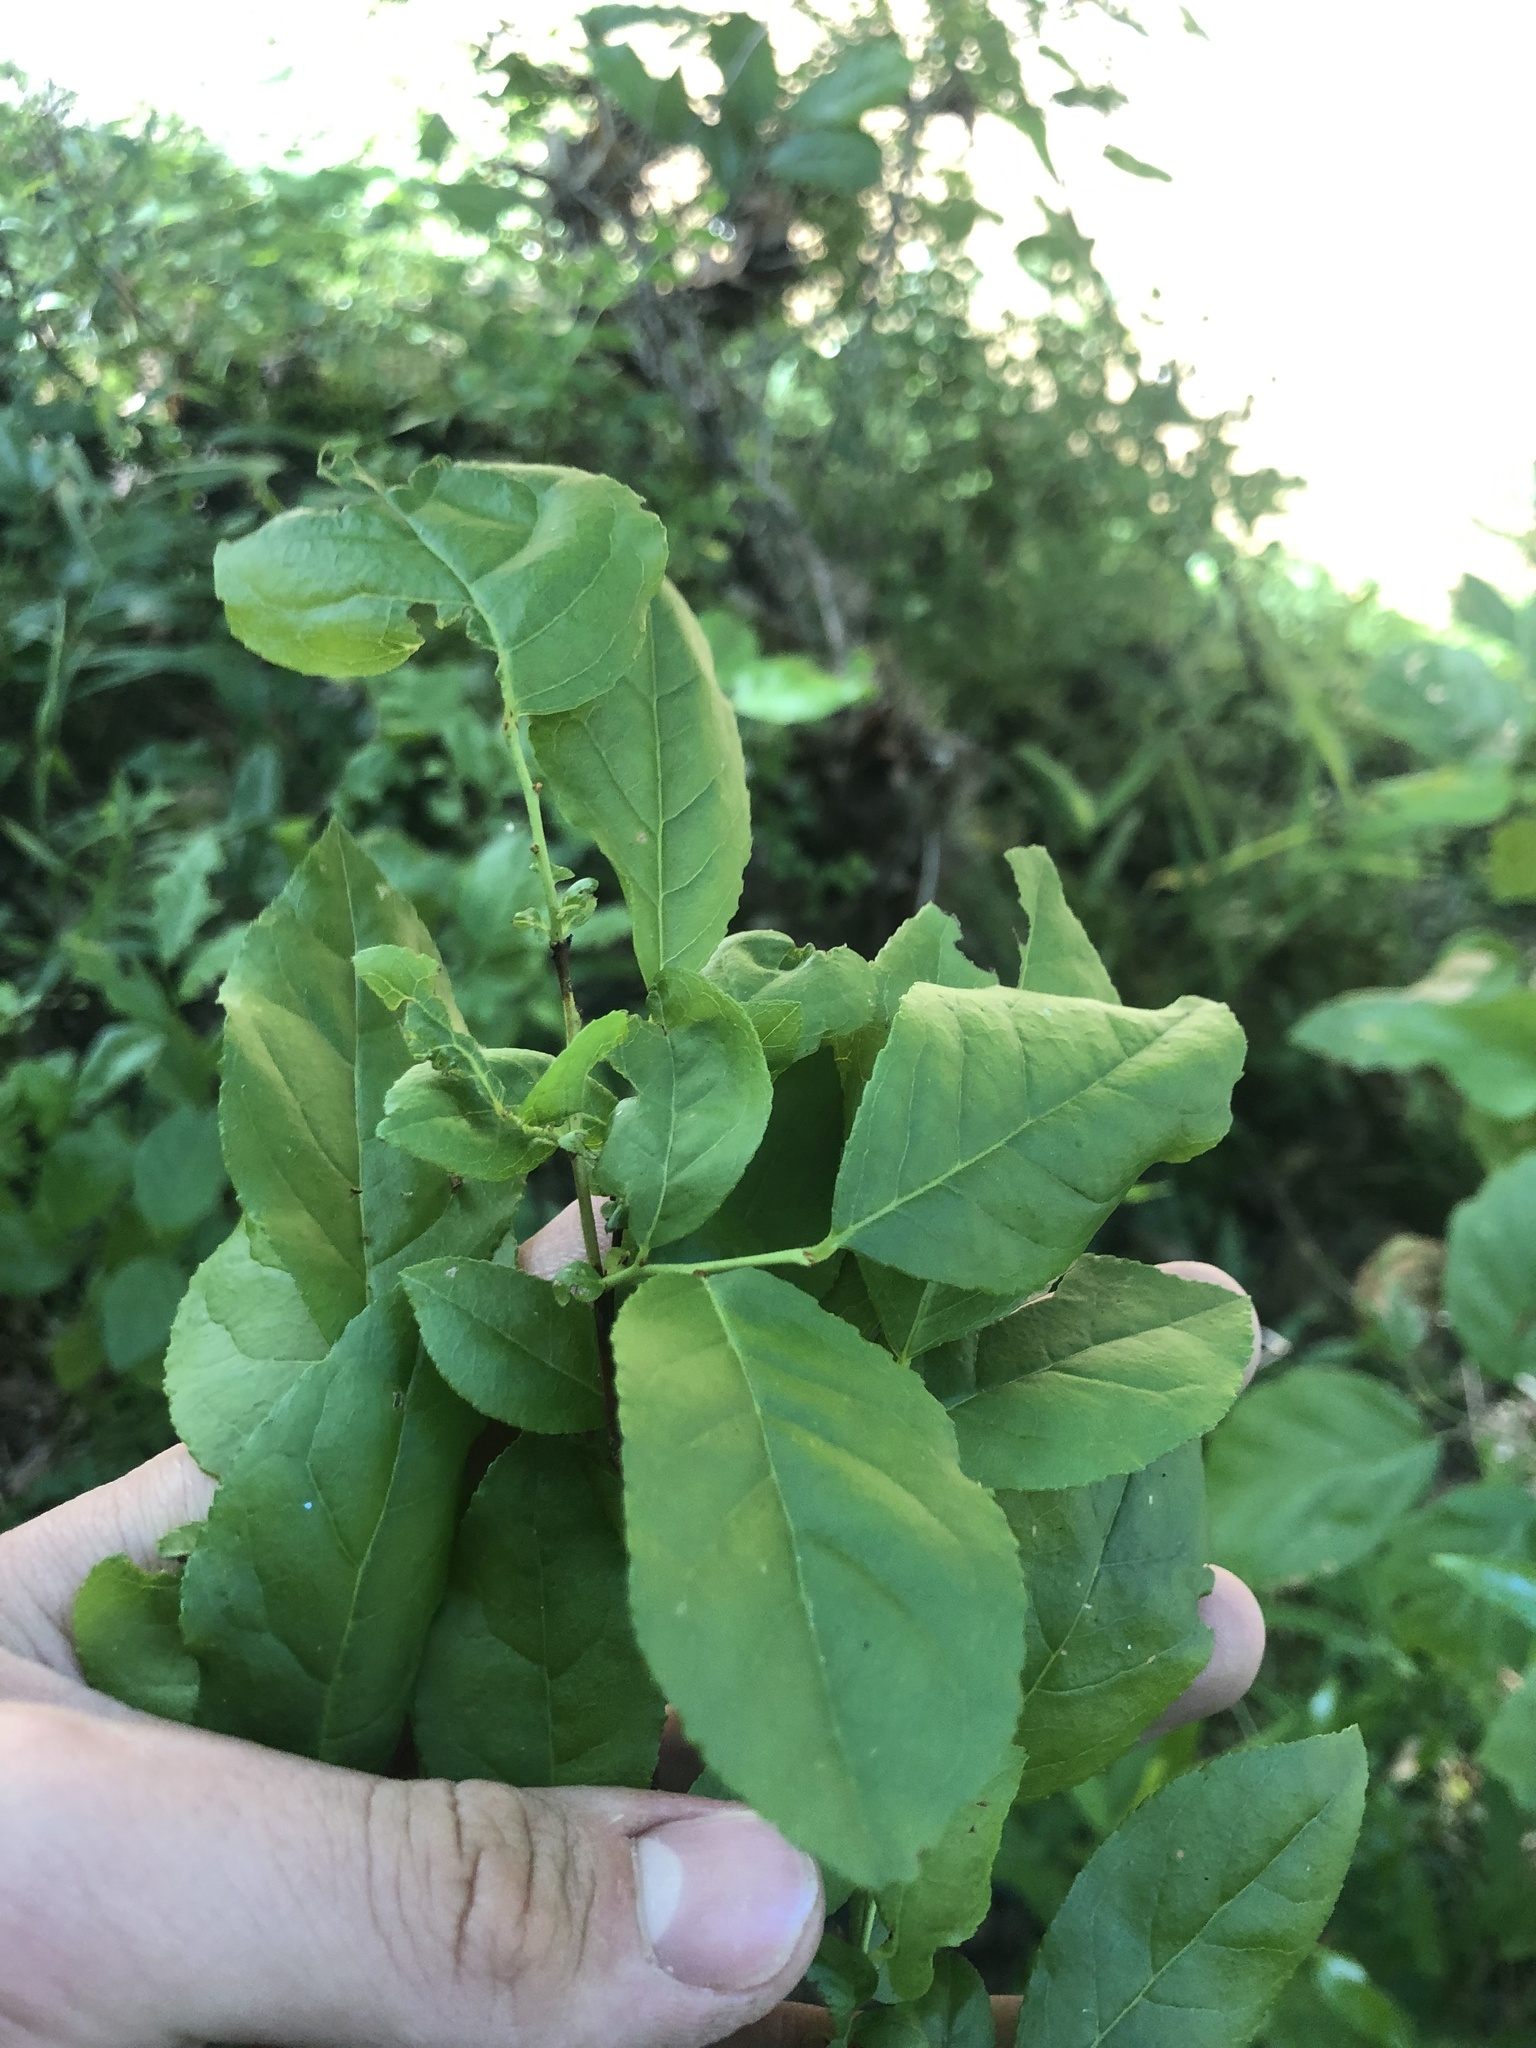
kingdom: Plantae
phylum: Tracheophyta
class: Magnoliopsida
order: Ericales
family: Ericaceae
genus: Eubotrys
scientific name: Eubotrys racemosa
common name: Fetterbush
